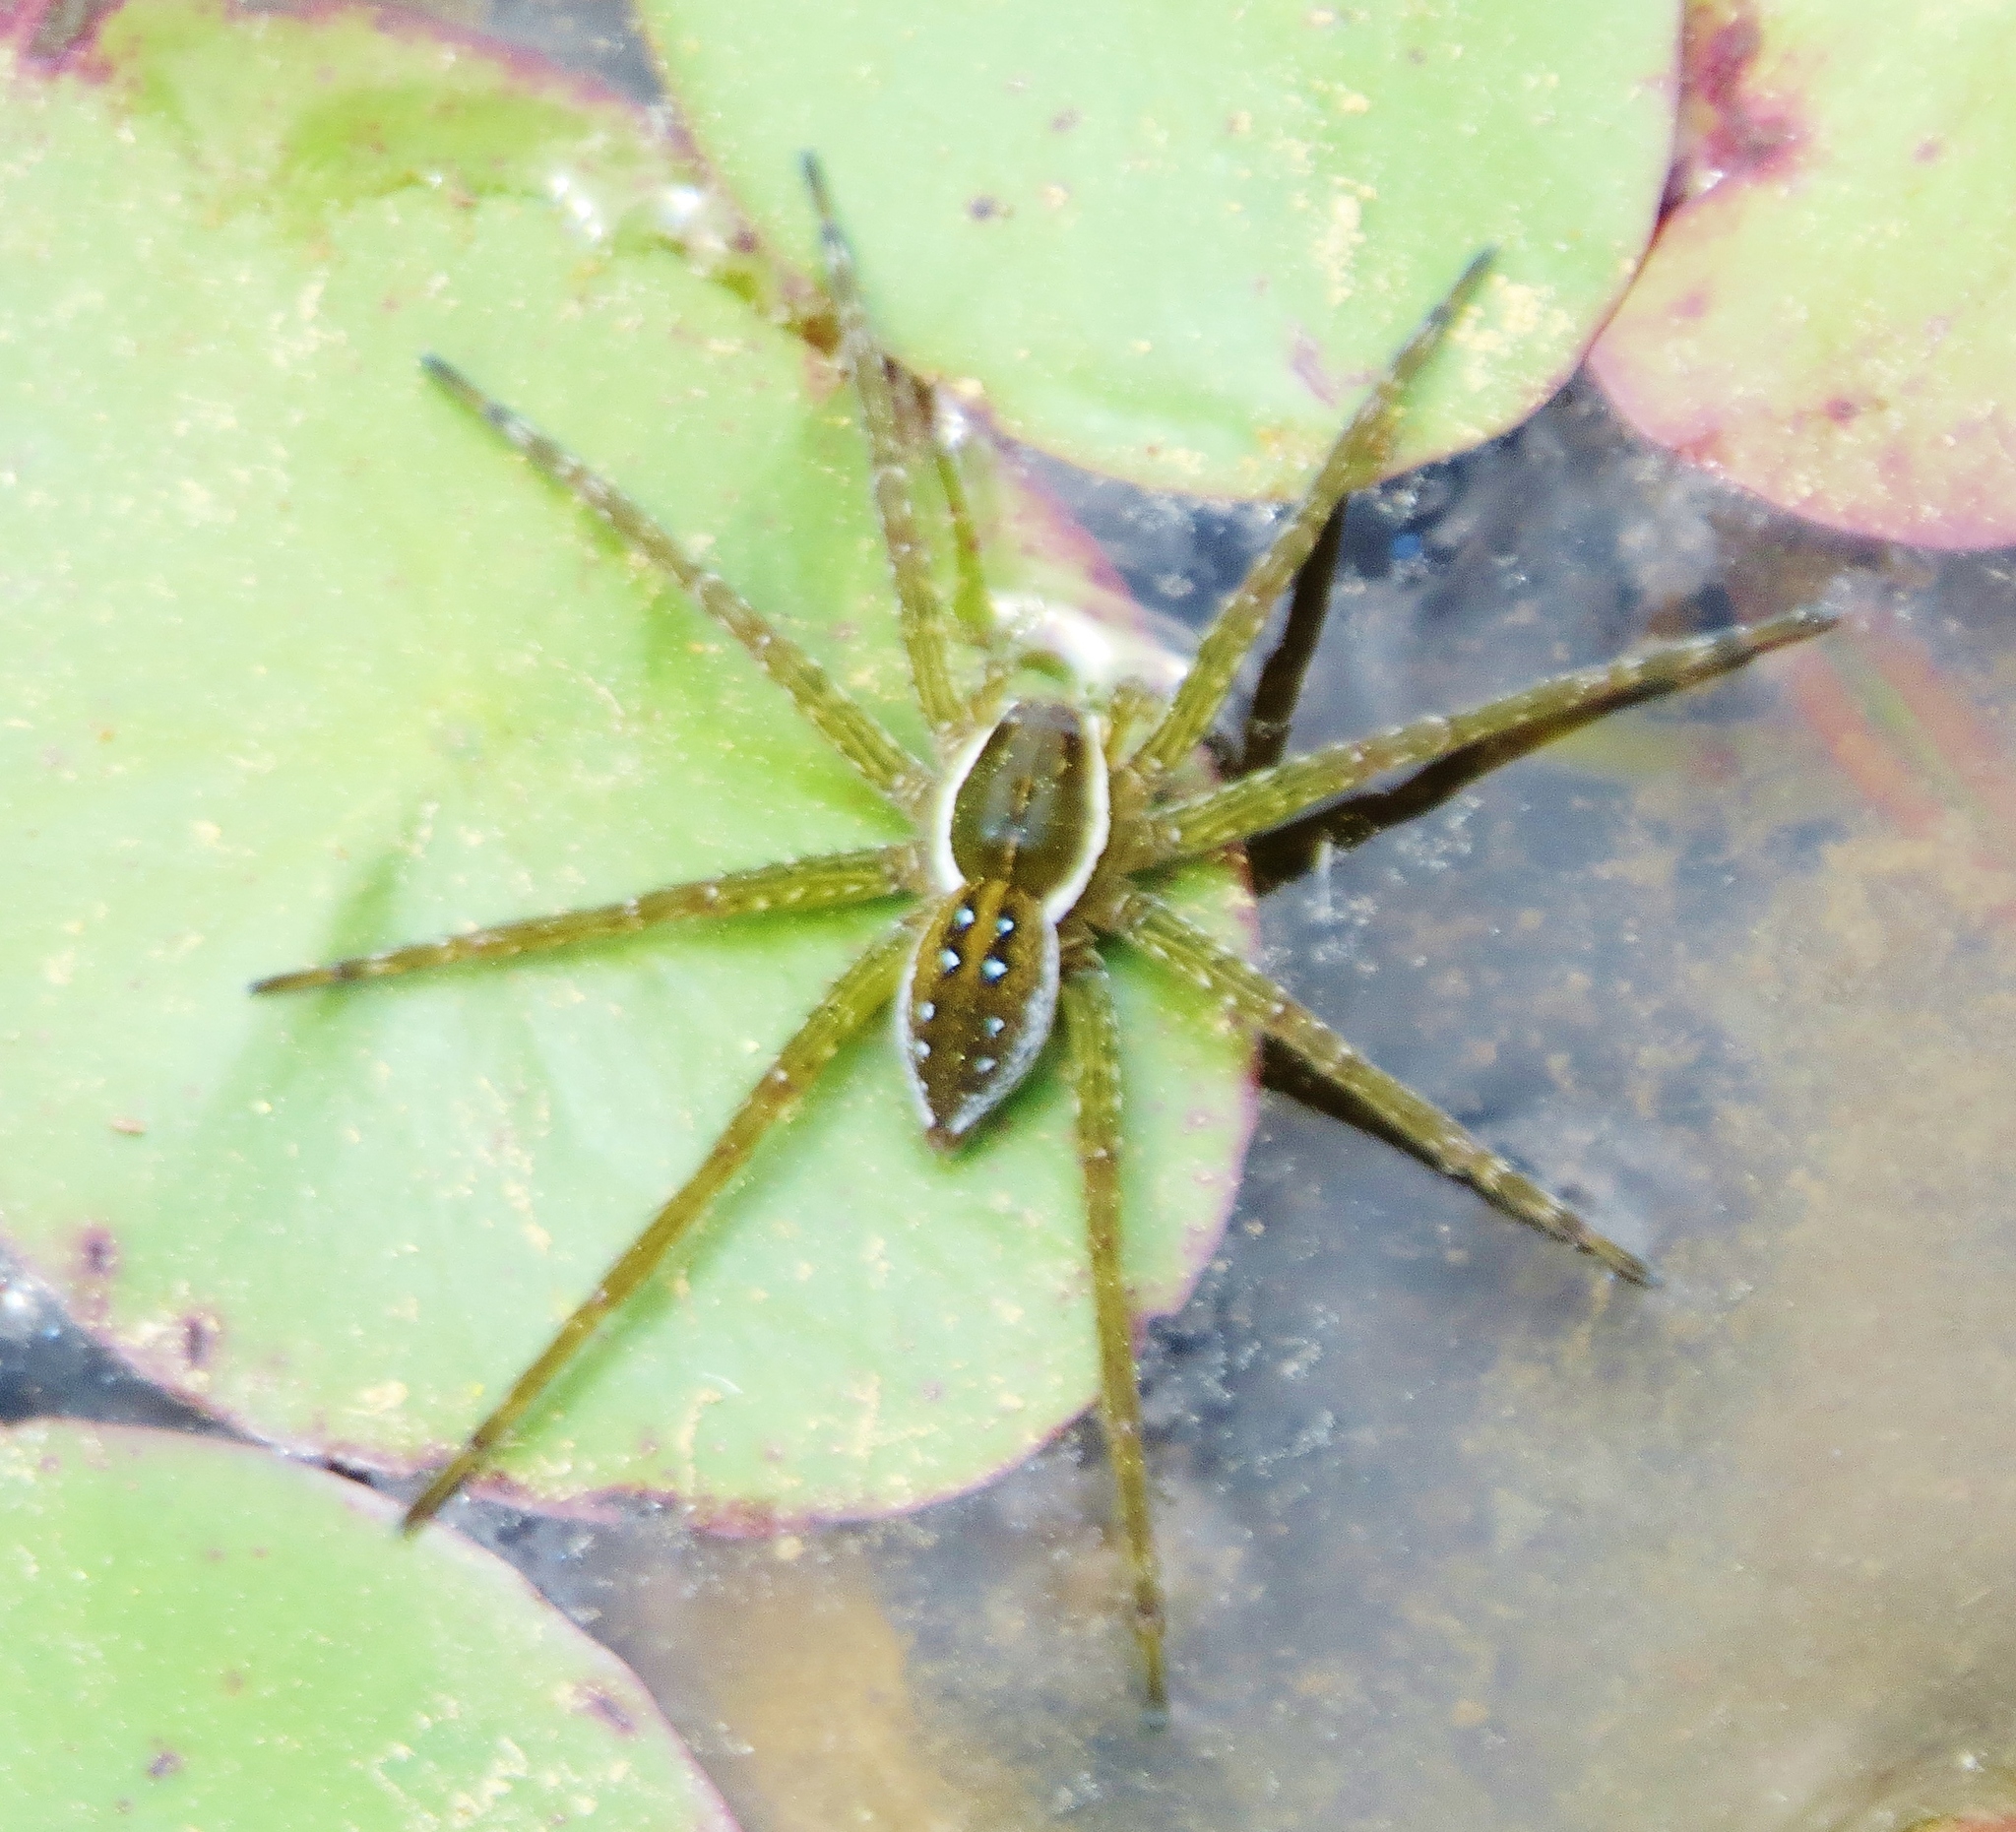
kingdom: Animalia
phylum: Arthropoda
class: Arachnida
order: Araneae
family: Pisauridae
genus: Dolomedes
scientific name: Dolomedes triton
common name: Six-spotted fishing spider
